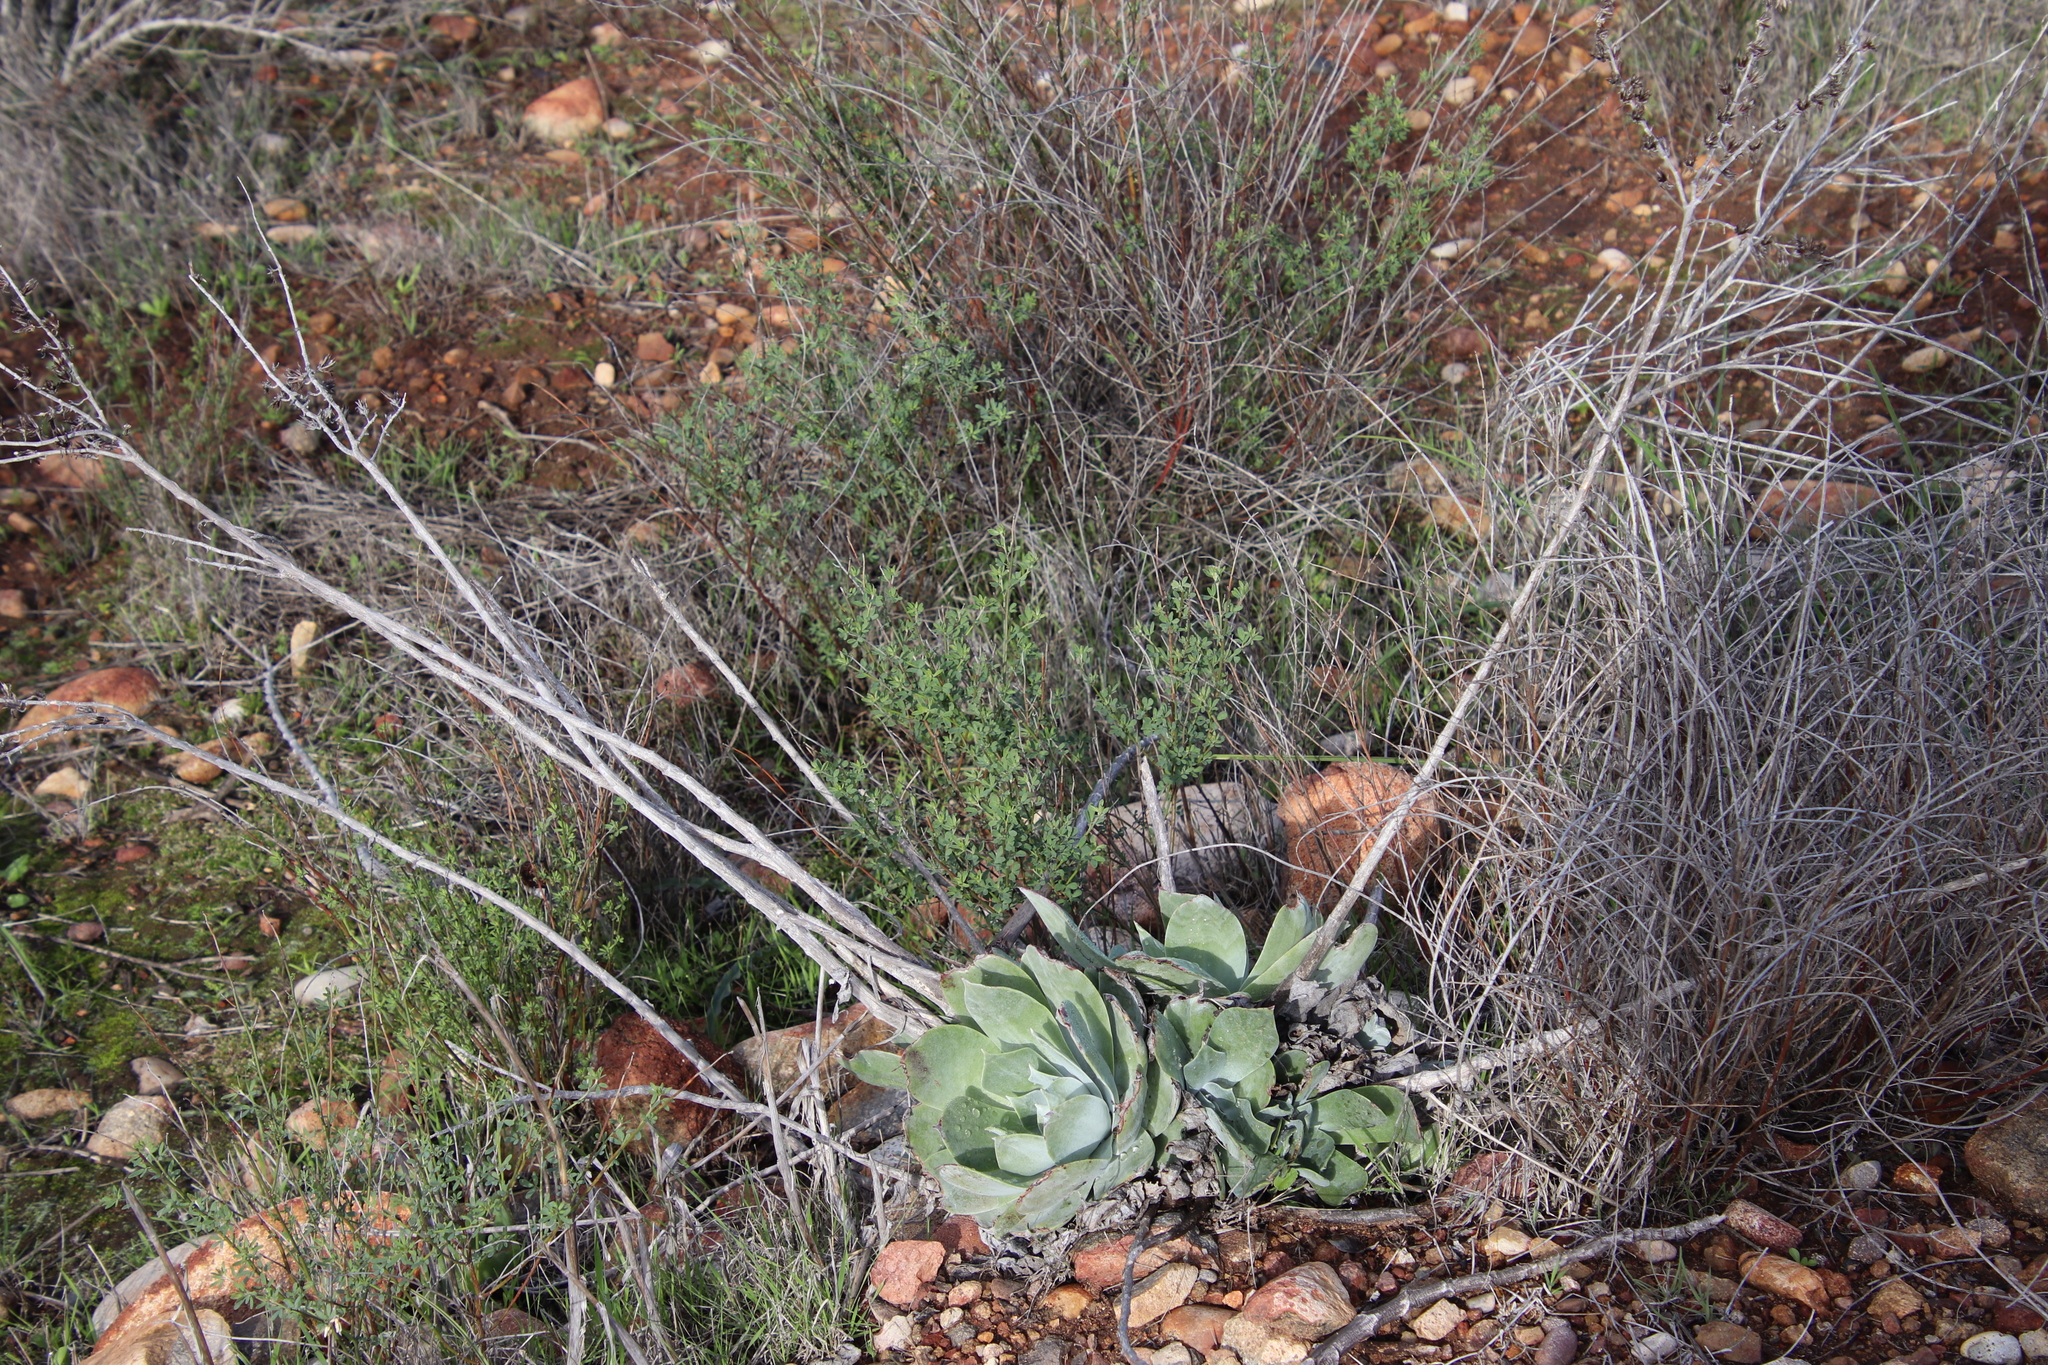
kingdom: Plantae
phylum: Tracheophyta
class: Magnoliopsida
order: Saxifragales
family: Crassulaceae
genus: Dudleya
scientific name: Dudleya pulverulenta
